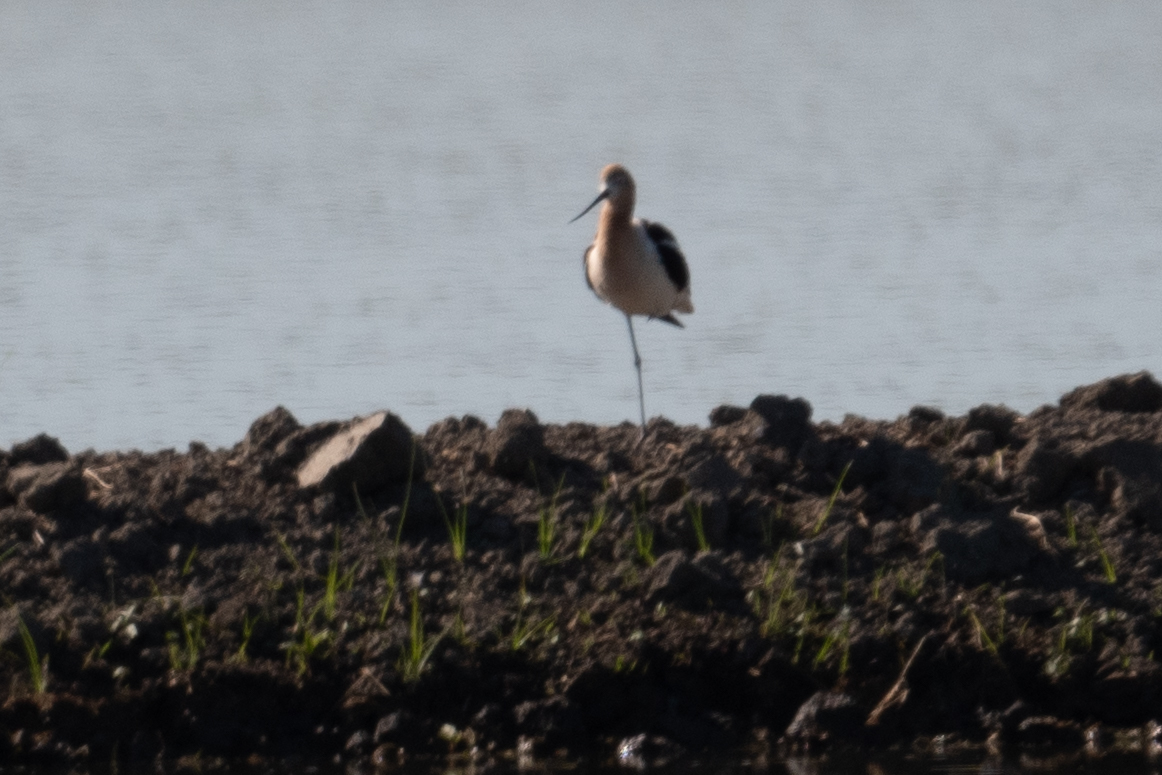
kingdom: Animalia
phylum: Chordata
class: Aves
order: Charadriiformes
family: Recurvirostridae
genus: Recurvirostra
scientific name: Recurvirostra americana
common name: American avocet
